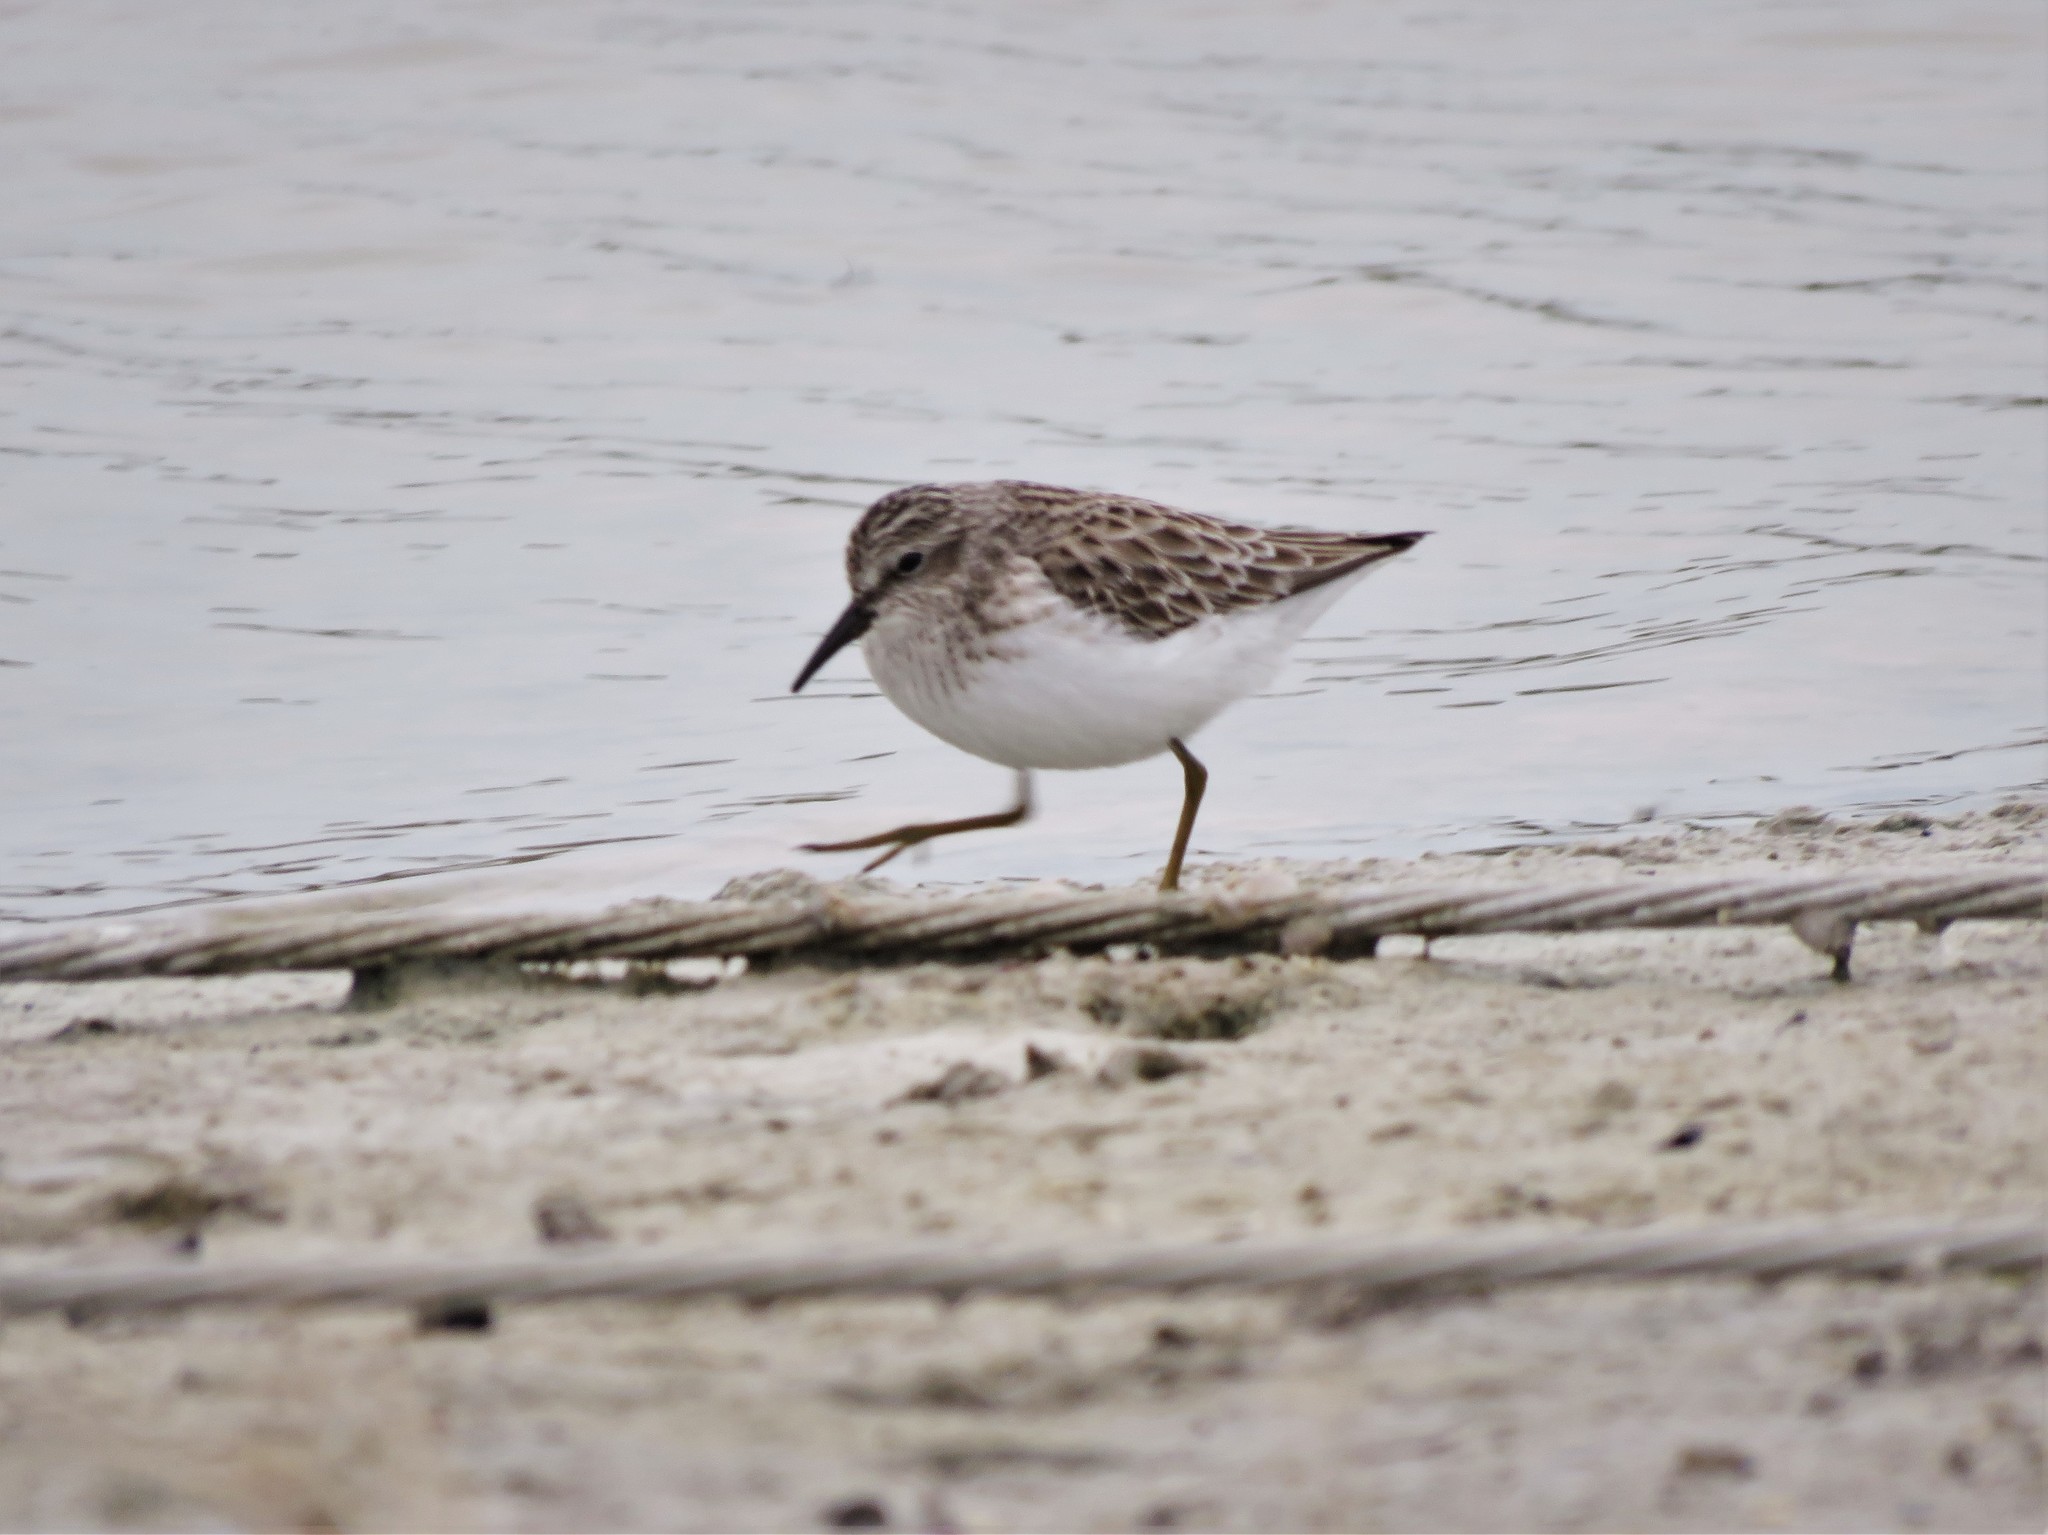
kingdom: Animalia
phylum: Chordata
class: Aves
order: Charadriiformes
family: Scolopacidae
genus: Calidris
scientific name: Calidris minutilla
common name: Least sandpiper
